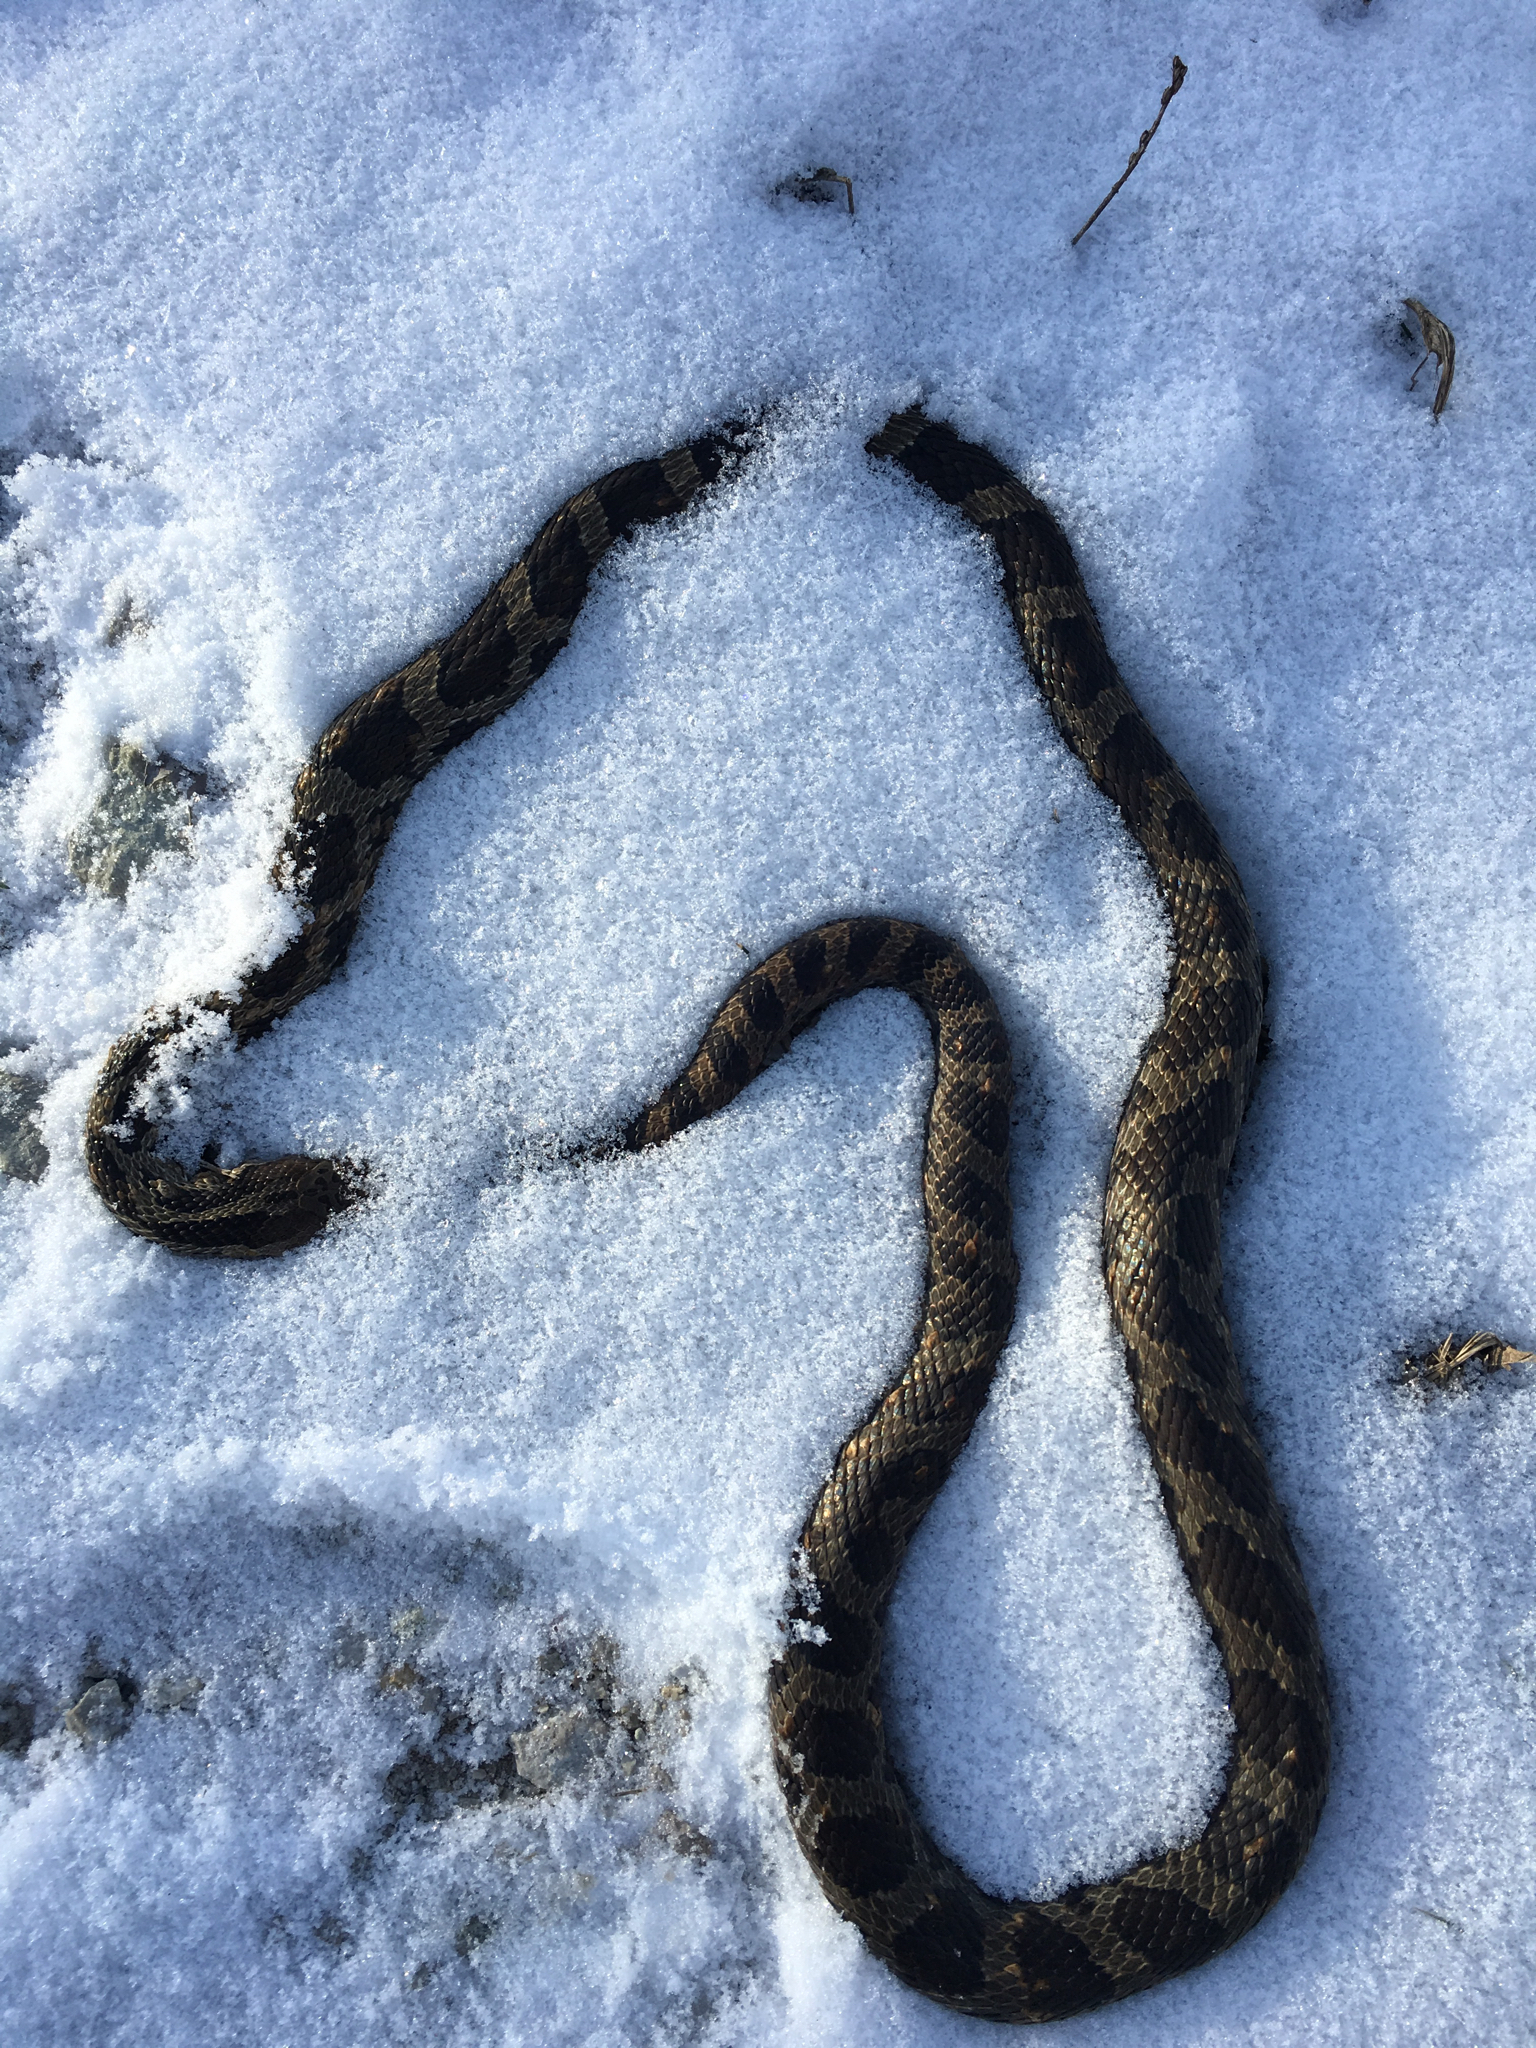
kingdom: Animalia
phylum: Chordata
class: Squamata
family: Colubridae
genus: Pantherophis
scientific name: Pantherophis vulpinus
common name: Eastern fox snake
